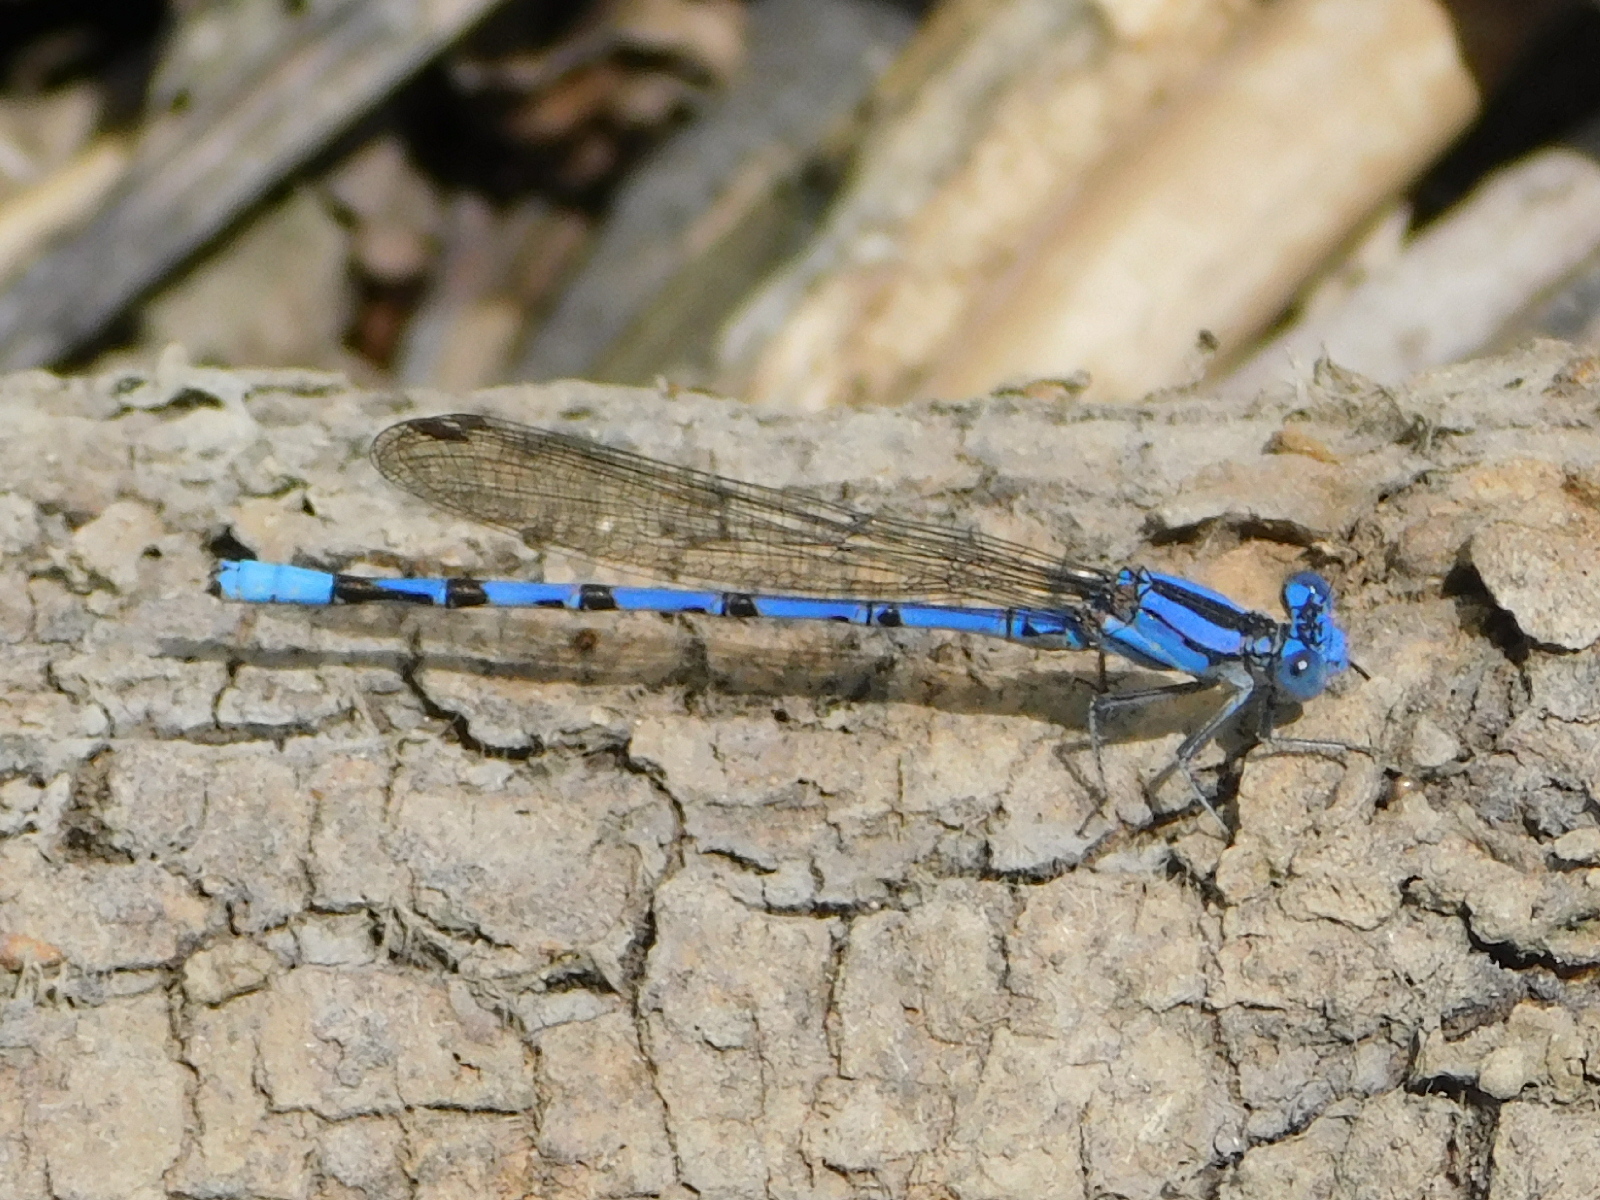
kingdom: Animalia
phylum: Arthropoda
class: Insecta
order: Odonata
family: Coenagrionidae
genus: Argia
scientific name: Argia funebris
